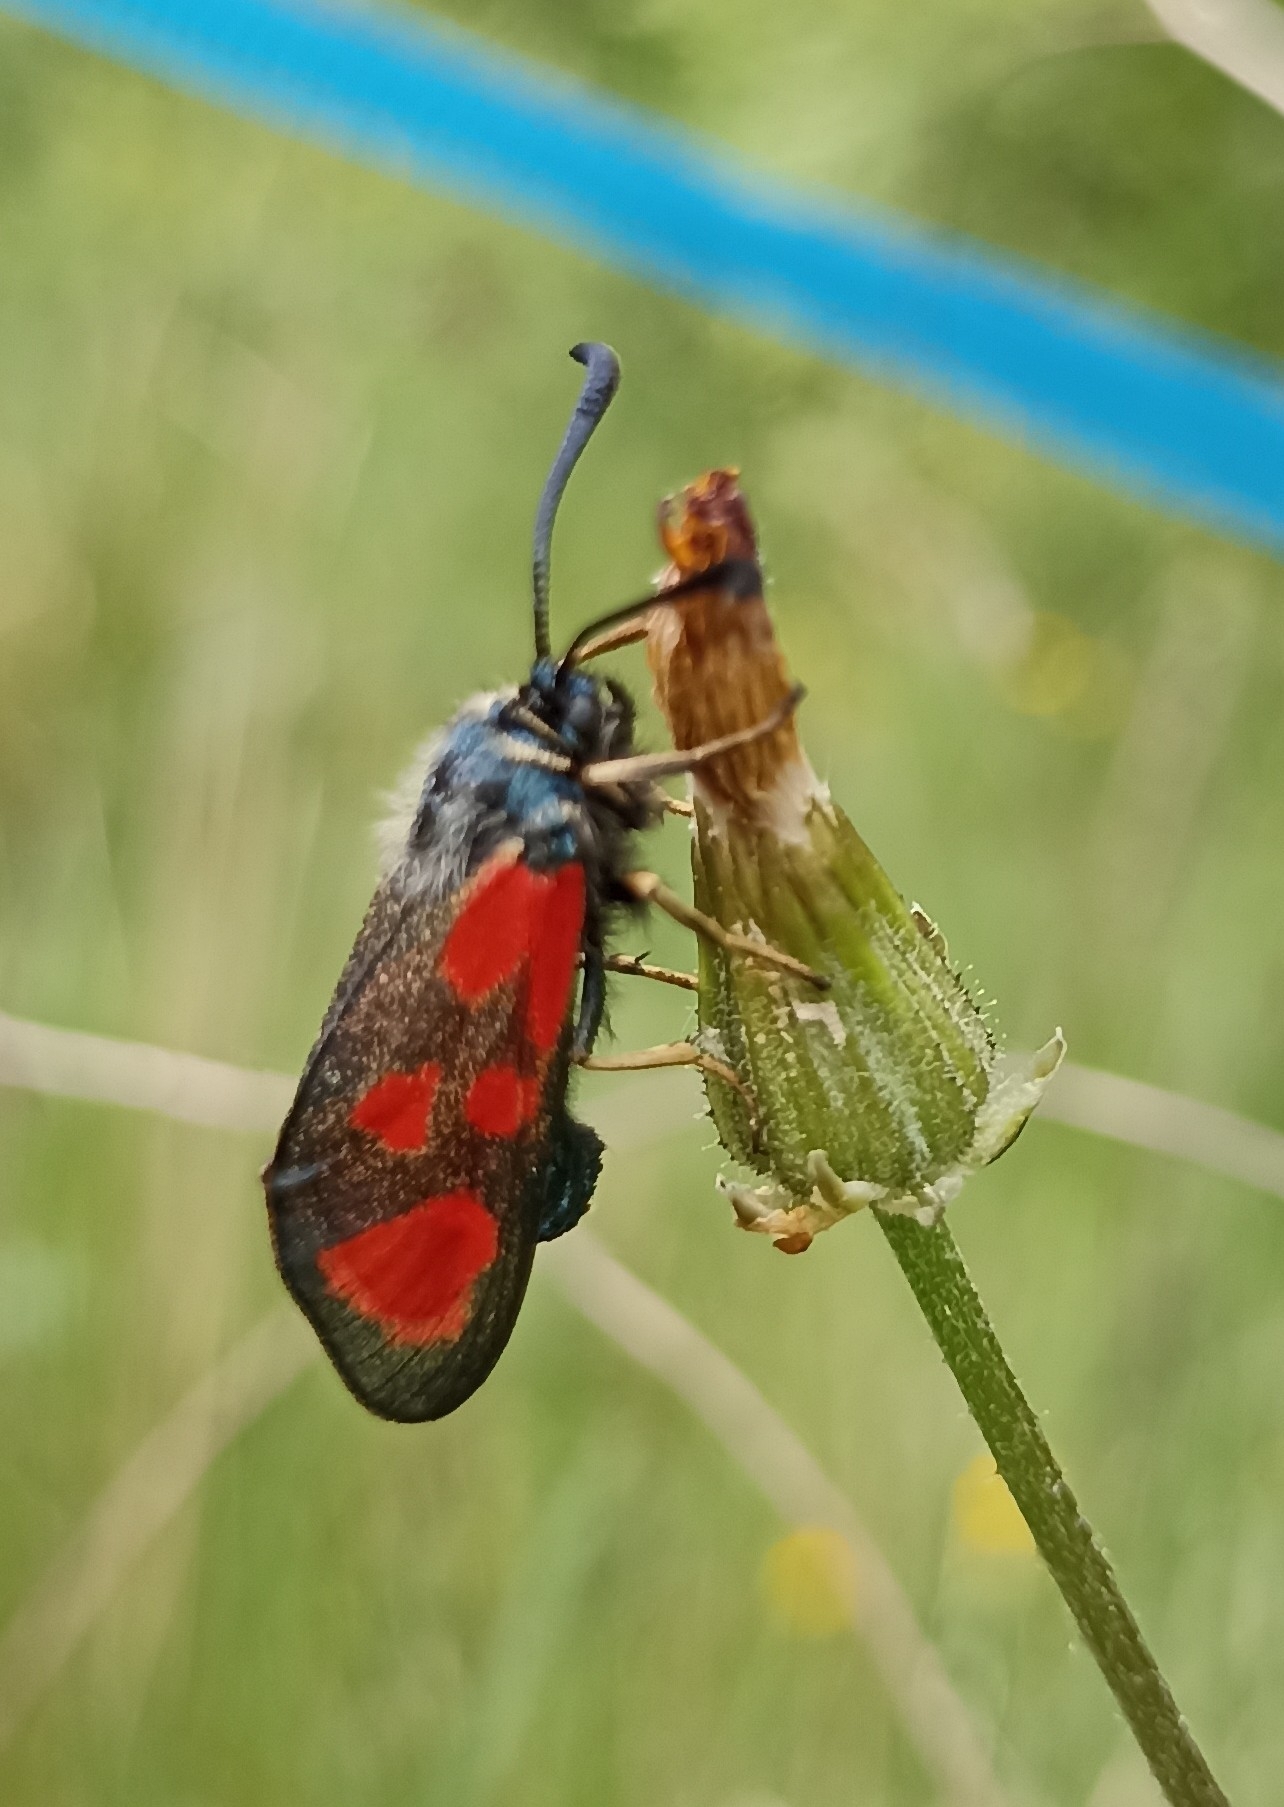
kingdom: Animalia
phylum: Arthropoda
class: Insecta
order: Lepidoptera
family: Zygaenidae
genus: Zygaena
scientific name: Zygaena loti
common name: Slender scotch burnet
